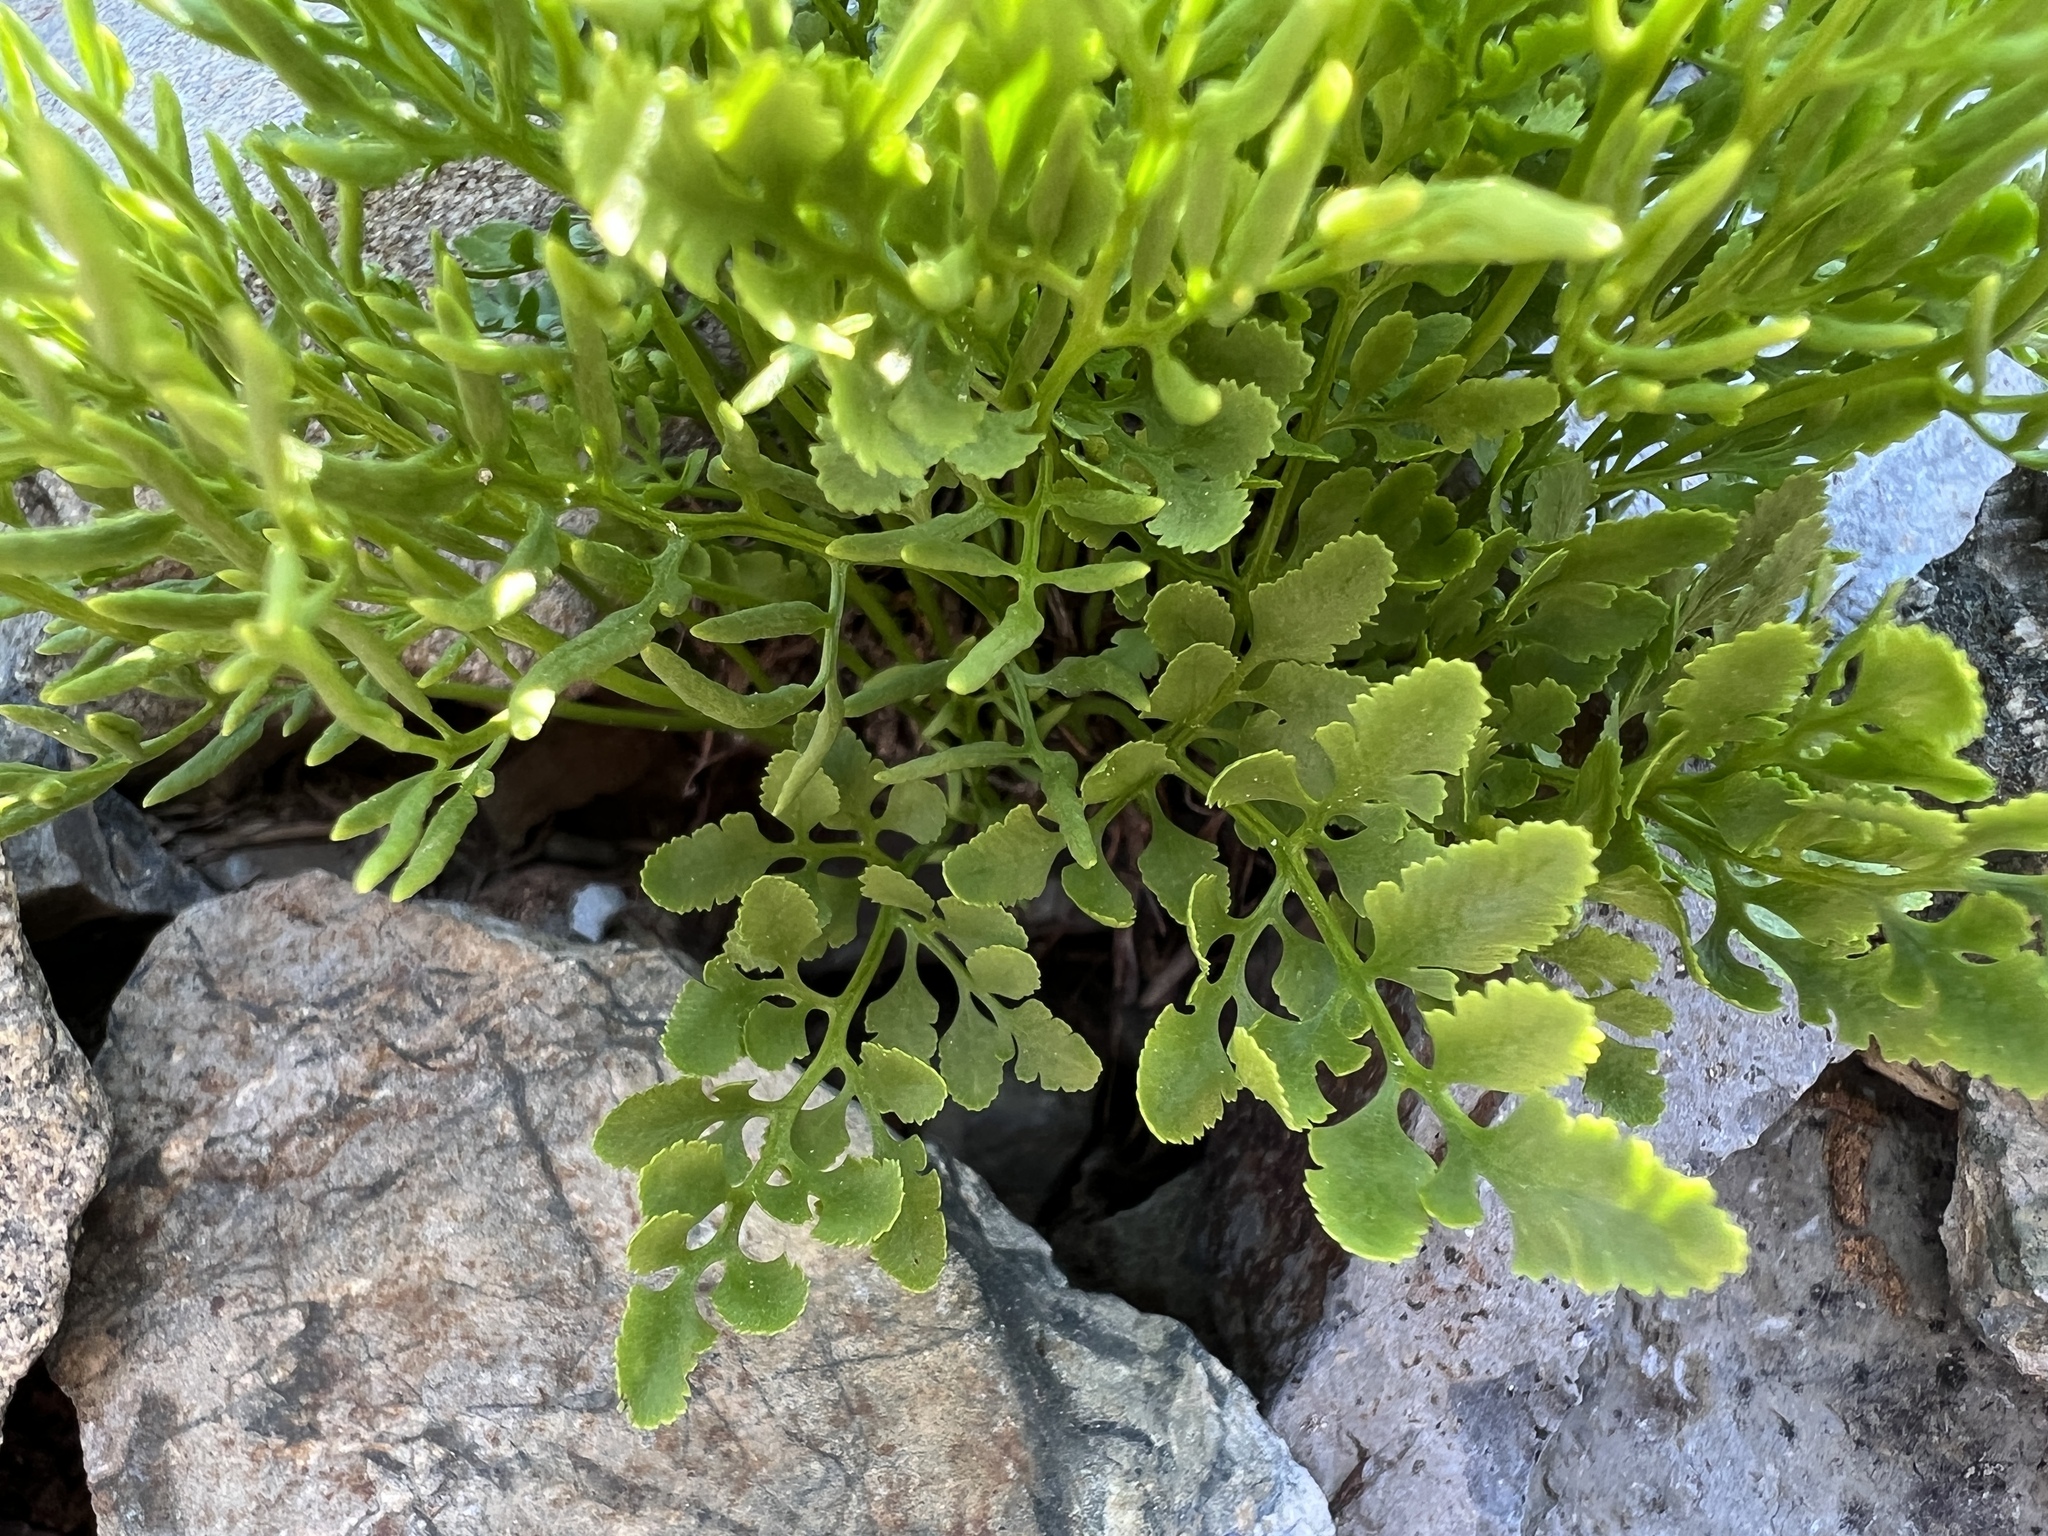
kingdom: Plantae
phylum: Tracheophyta
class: Polypodiopsida
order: Polypodiales
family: Pteridaceae
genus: Cryptogramma
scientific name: Cryptogramma cascadensis
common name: Cascade parsley fern
